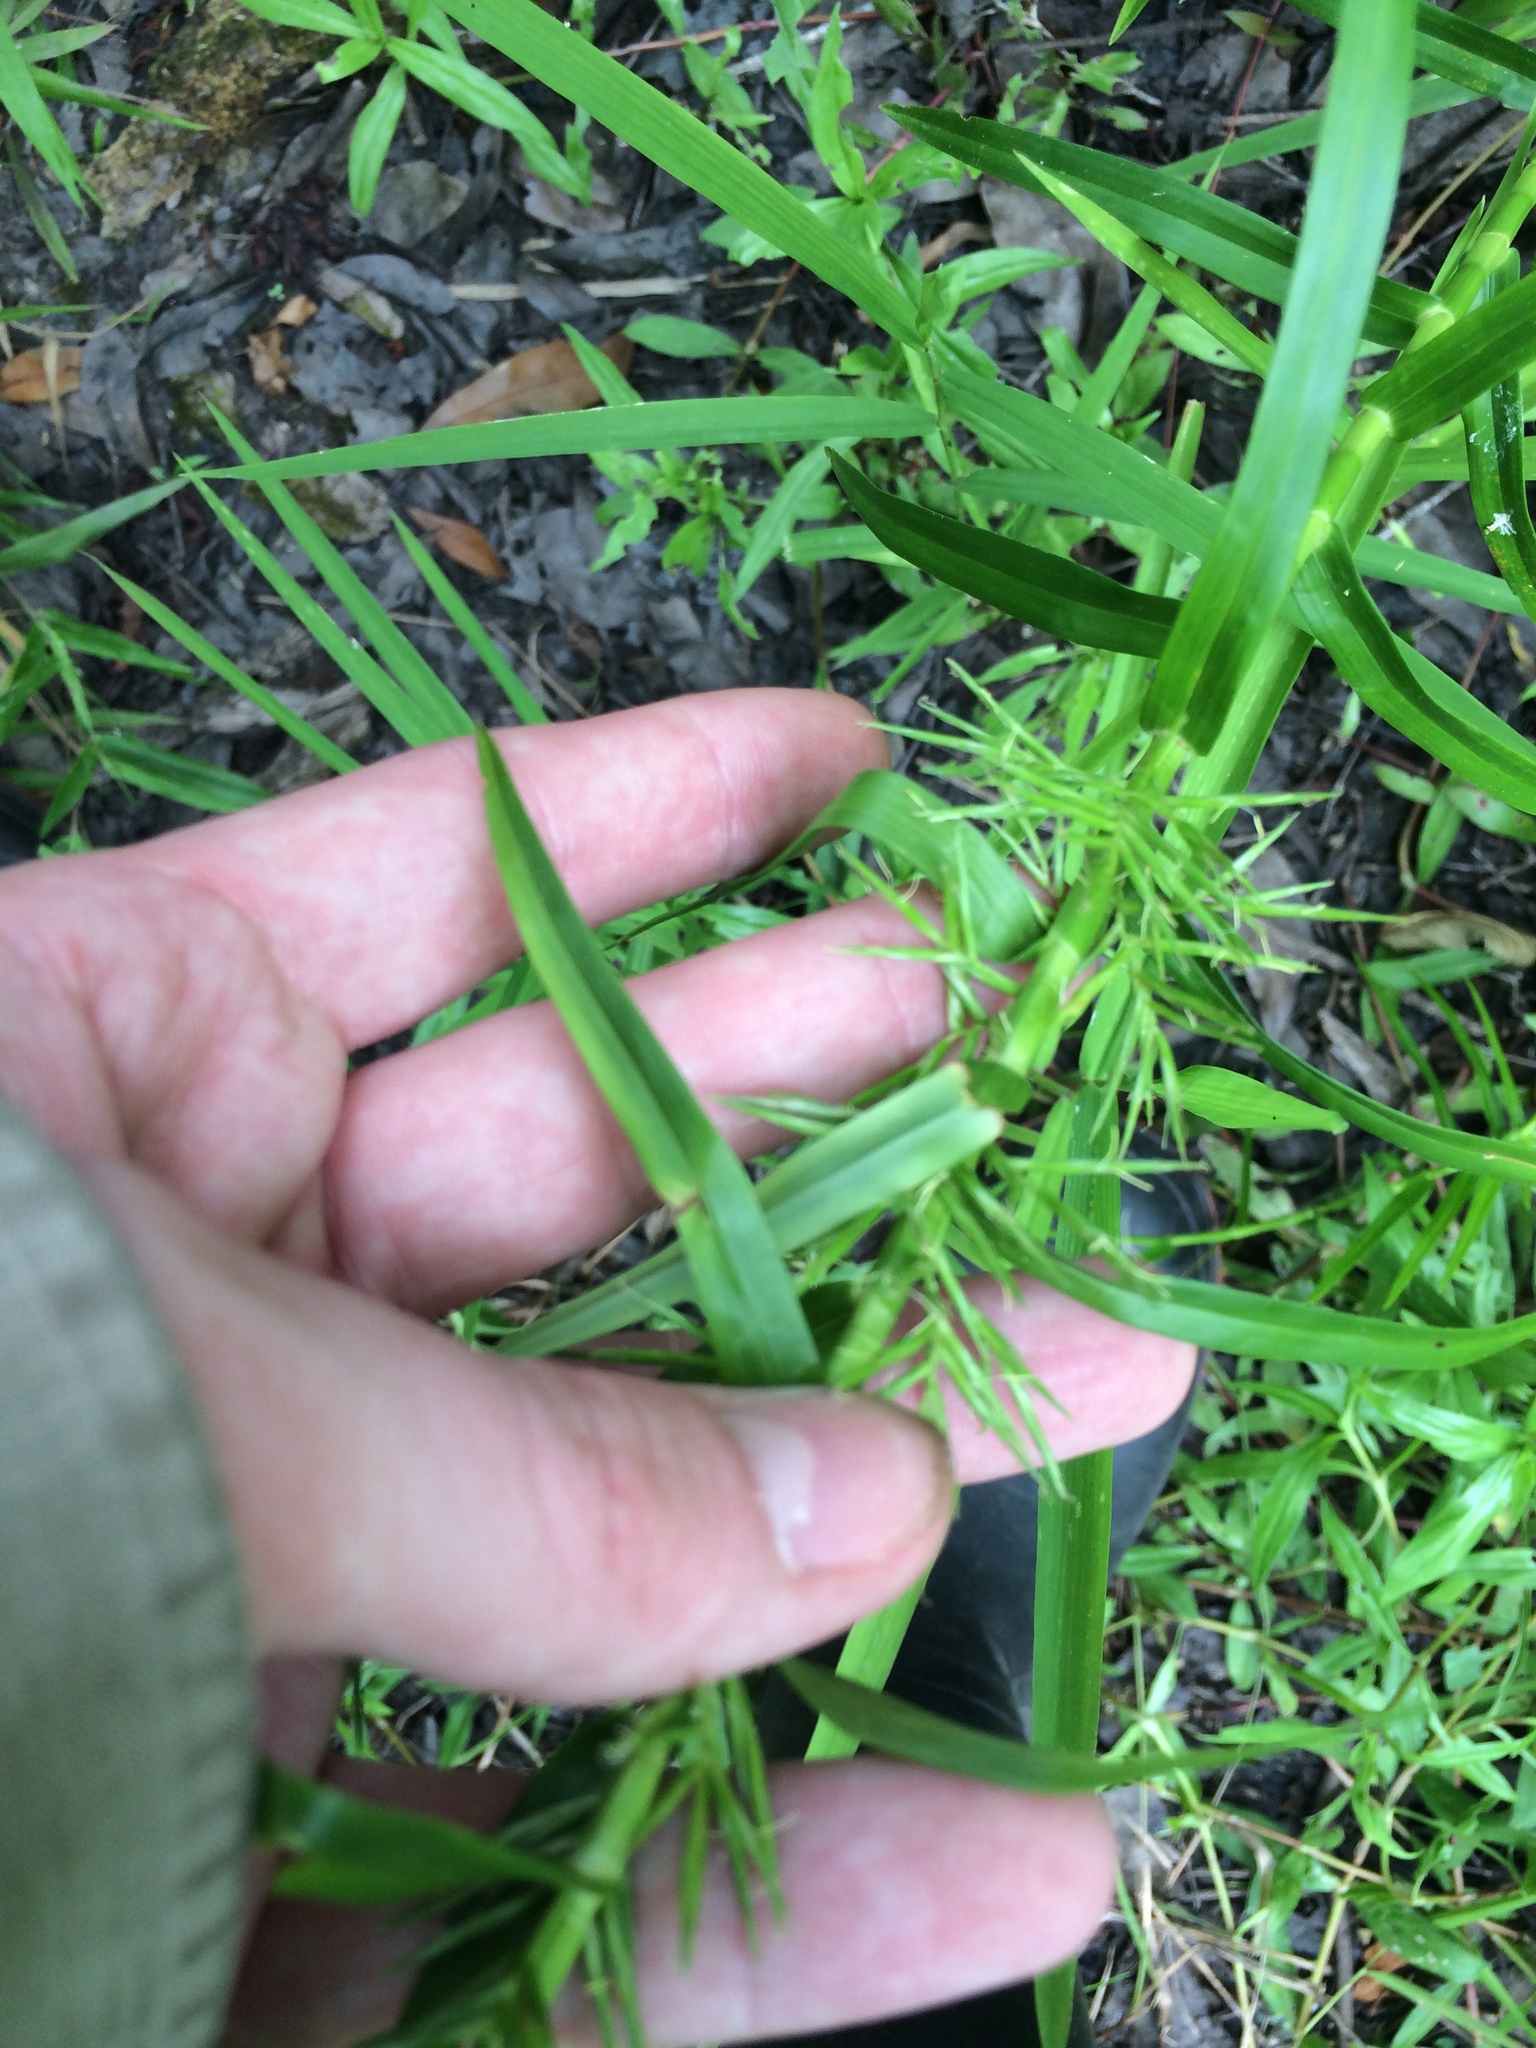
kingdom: Plantae
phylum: Tracheophyta
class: Liliopsida
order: Poales
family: Cyperaceae
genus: Dulichium
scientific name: Dulichium arundinaceum
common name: Three-way sedge
